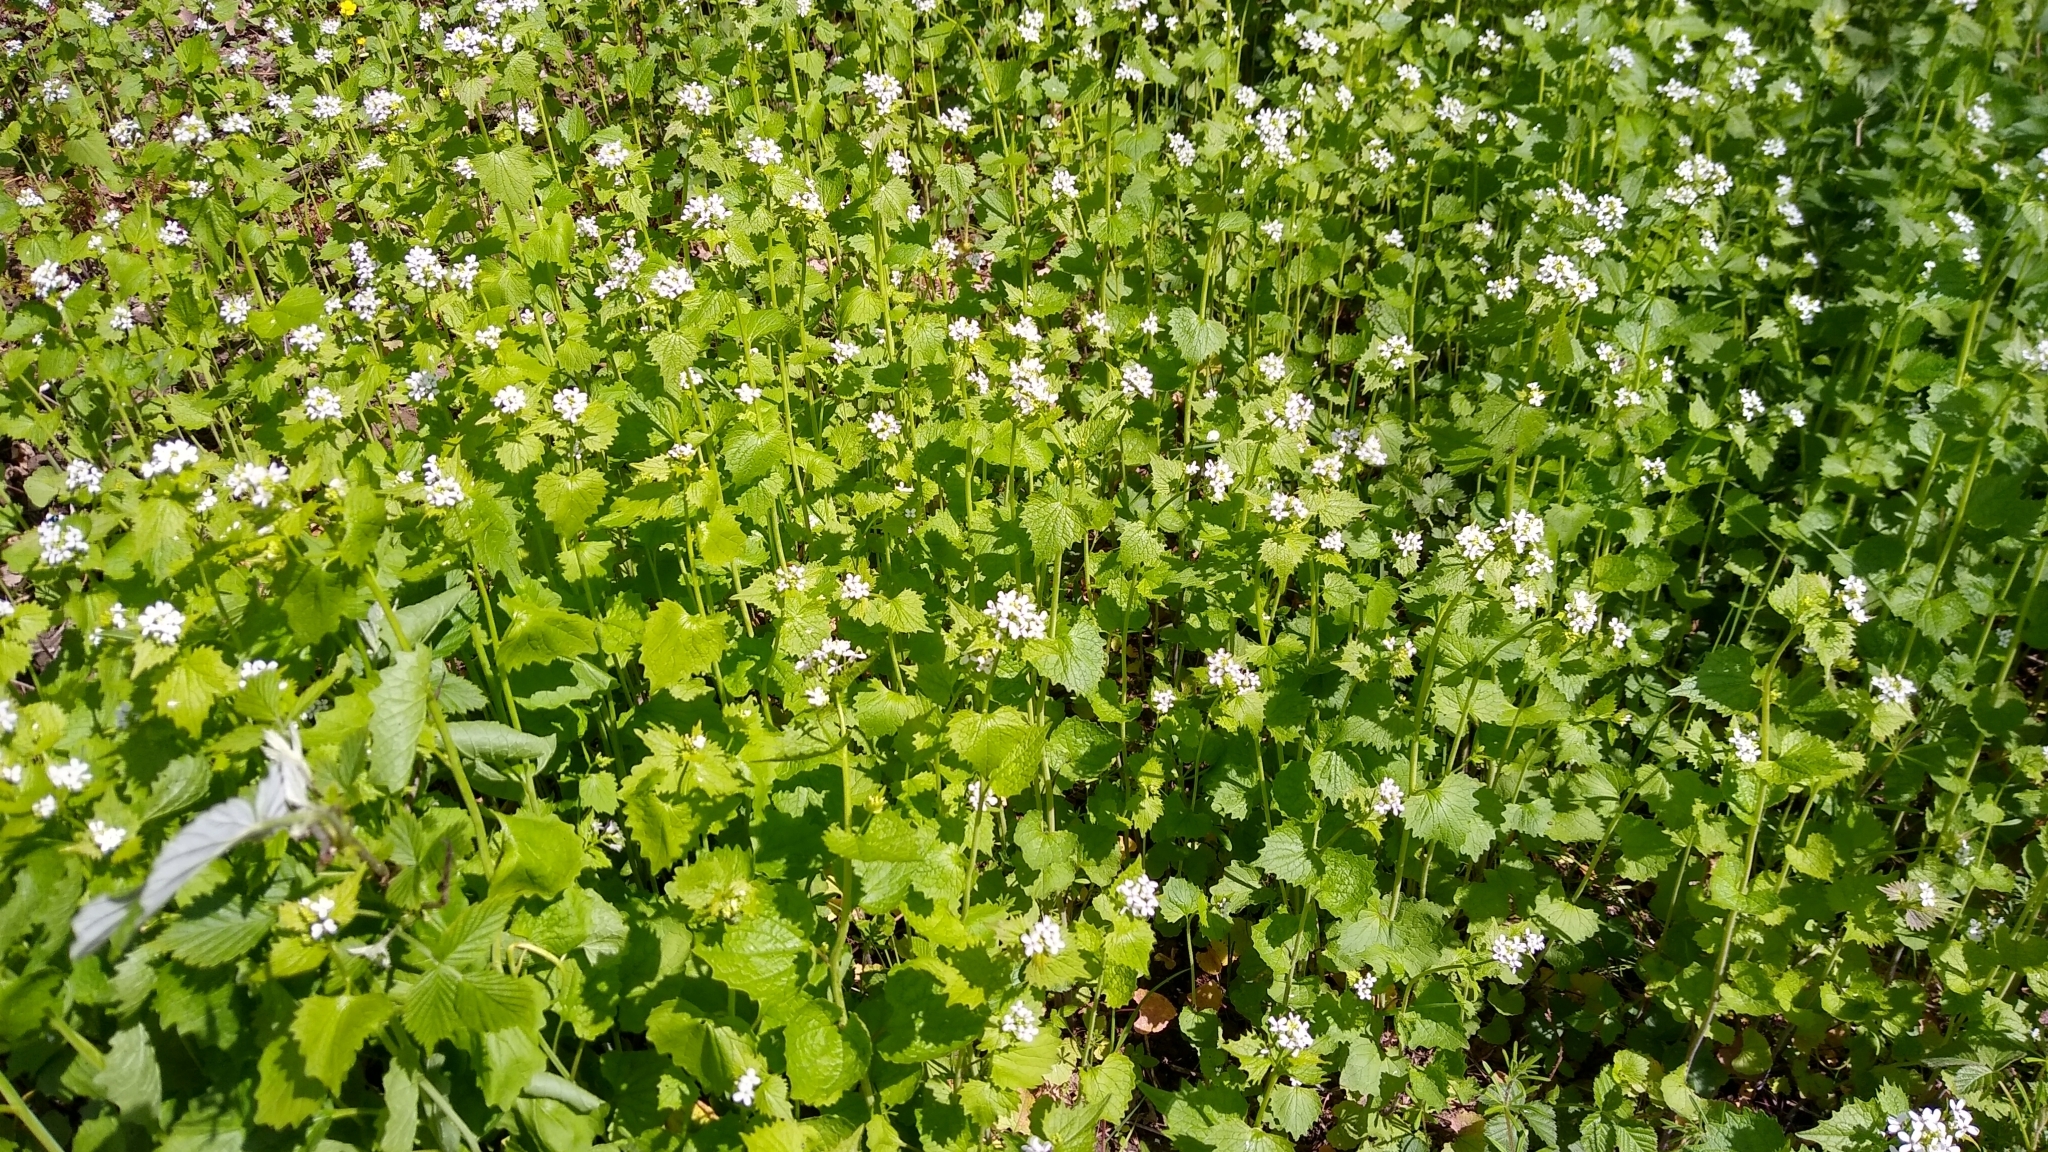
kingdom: Plantae
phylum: Tracheophyta
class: Magnoliopsida
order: Brassicales
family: Brassicaceae
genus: Alliaria
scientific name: Alliaria petiolata
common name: Garlic mustard
